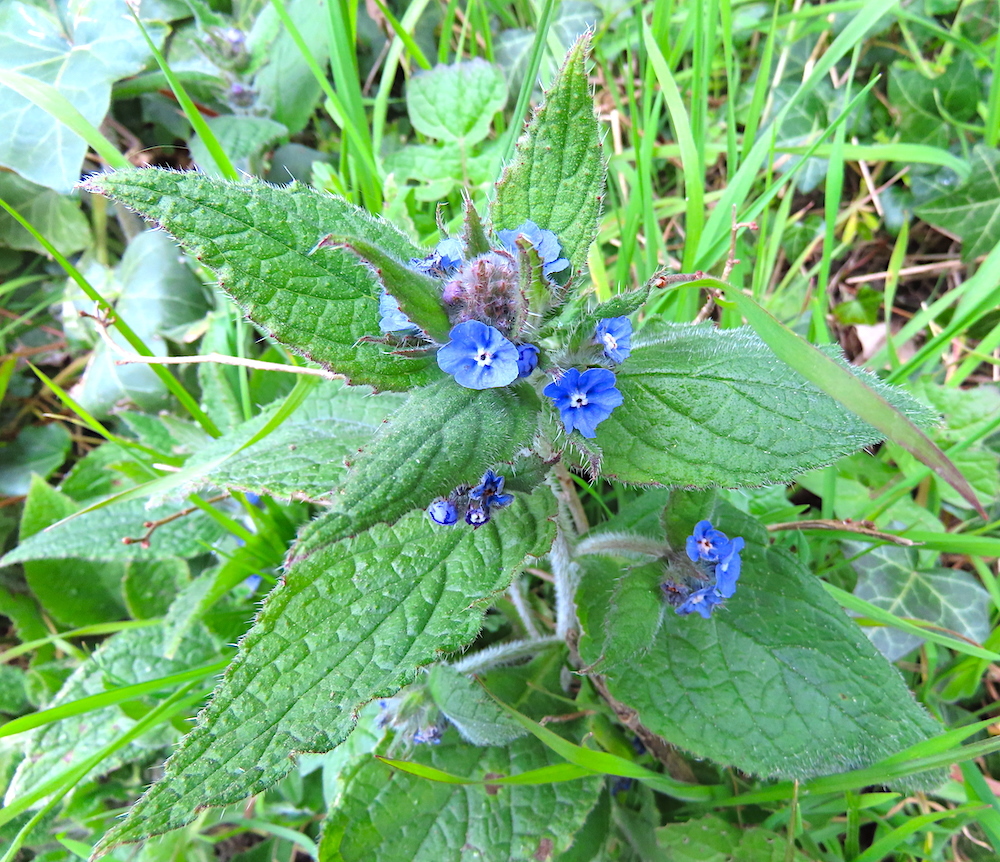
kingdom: Plantae
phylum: Tracheophyta
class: Magnoliopsida
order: Boraginales
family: Boraginaceae
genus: Pentaglottis
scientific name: Pentaglottis sempervirens
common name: Green alkanet
